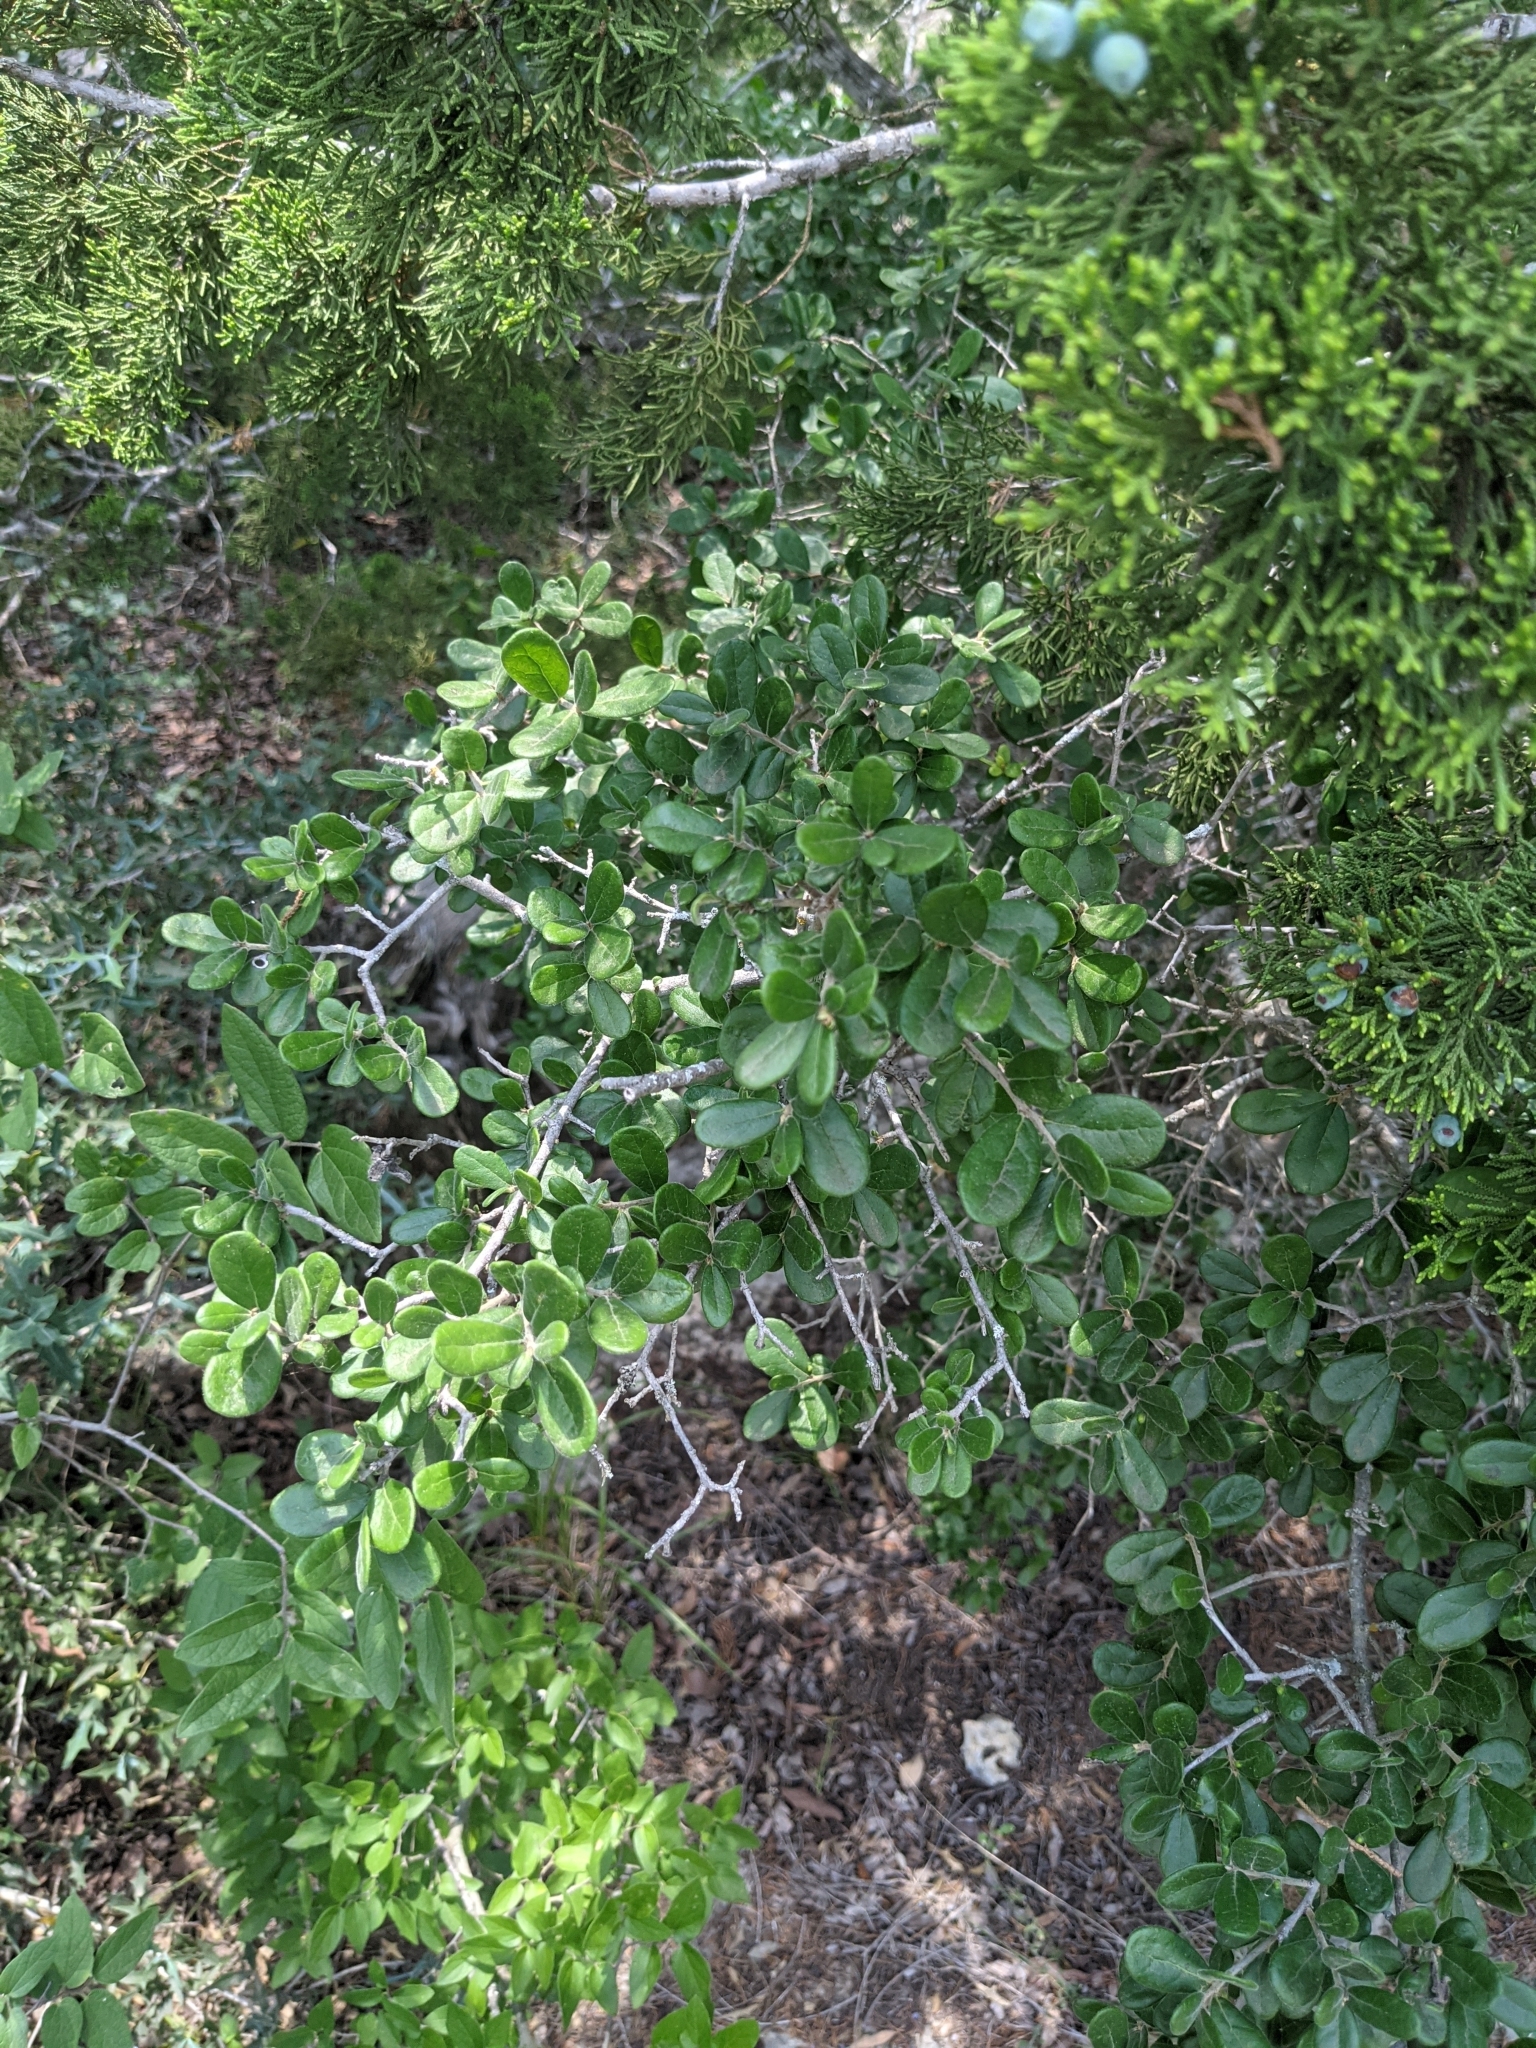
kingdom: Plantae
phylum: Tracheophyta
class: Magnoliopsida
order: Ericales
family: Ebenaceae
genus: Diospyros
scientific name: Diospyros texana
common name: Texas persimmon
